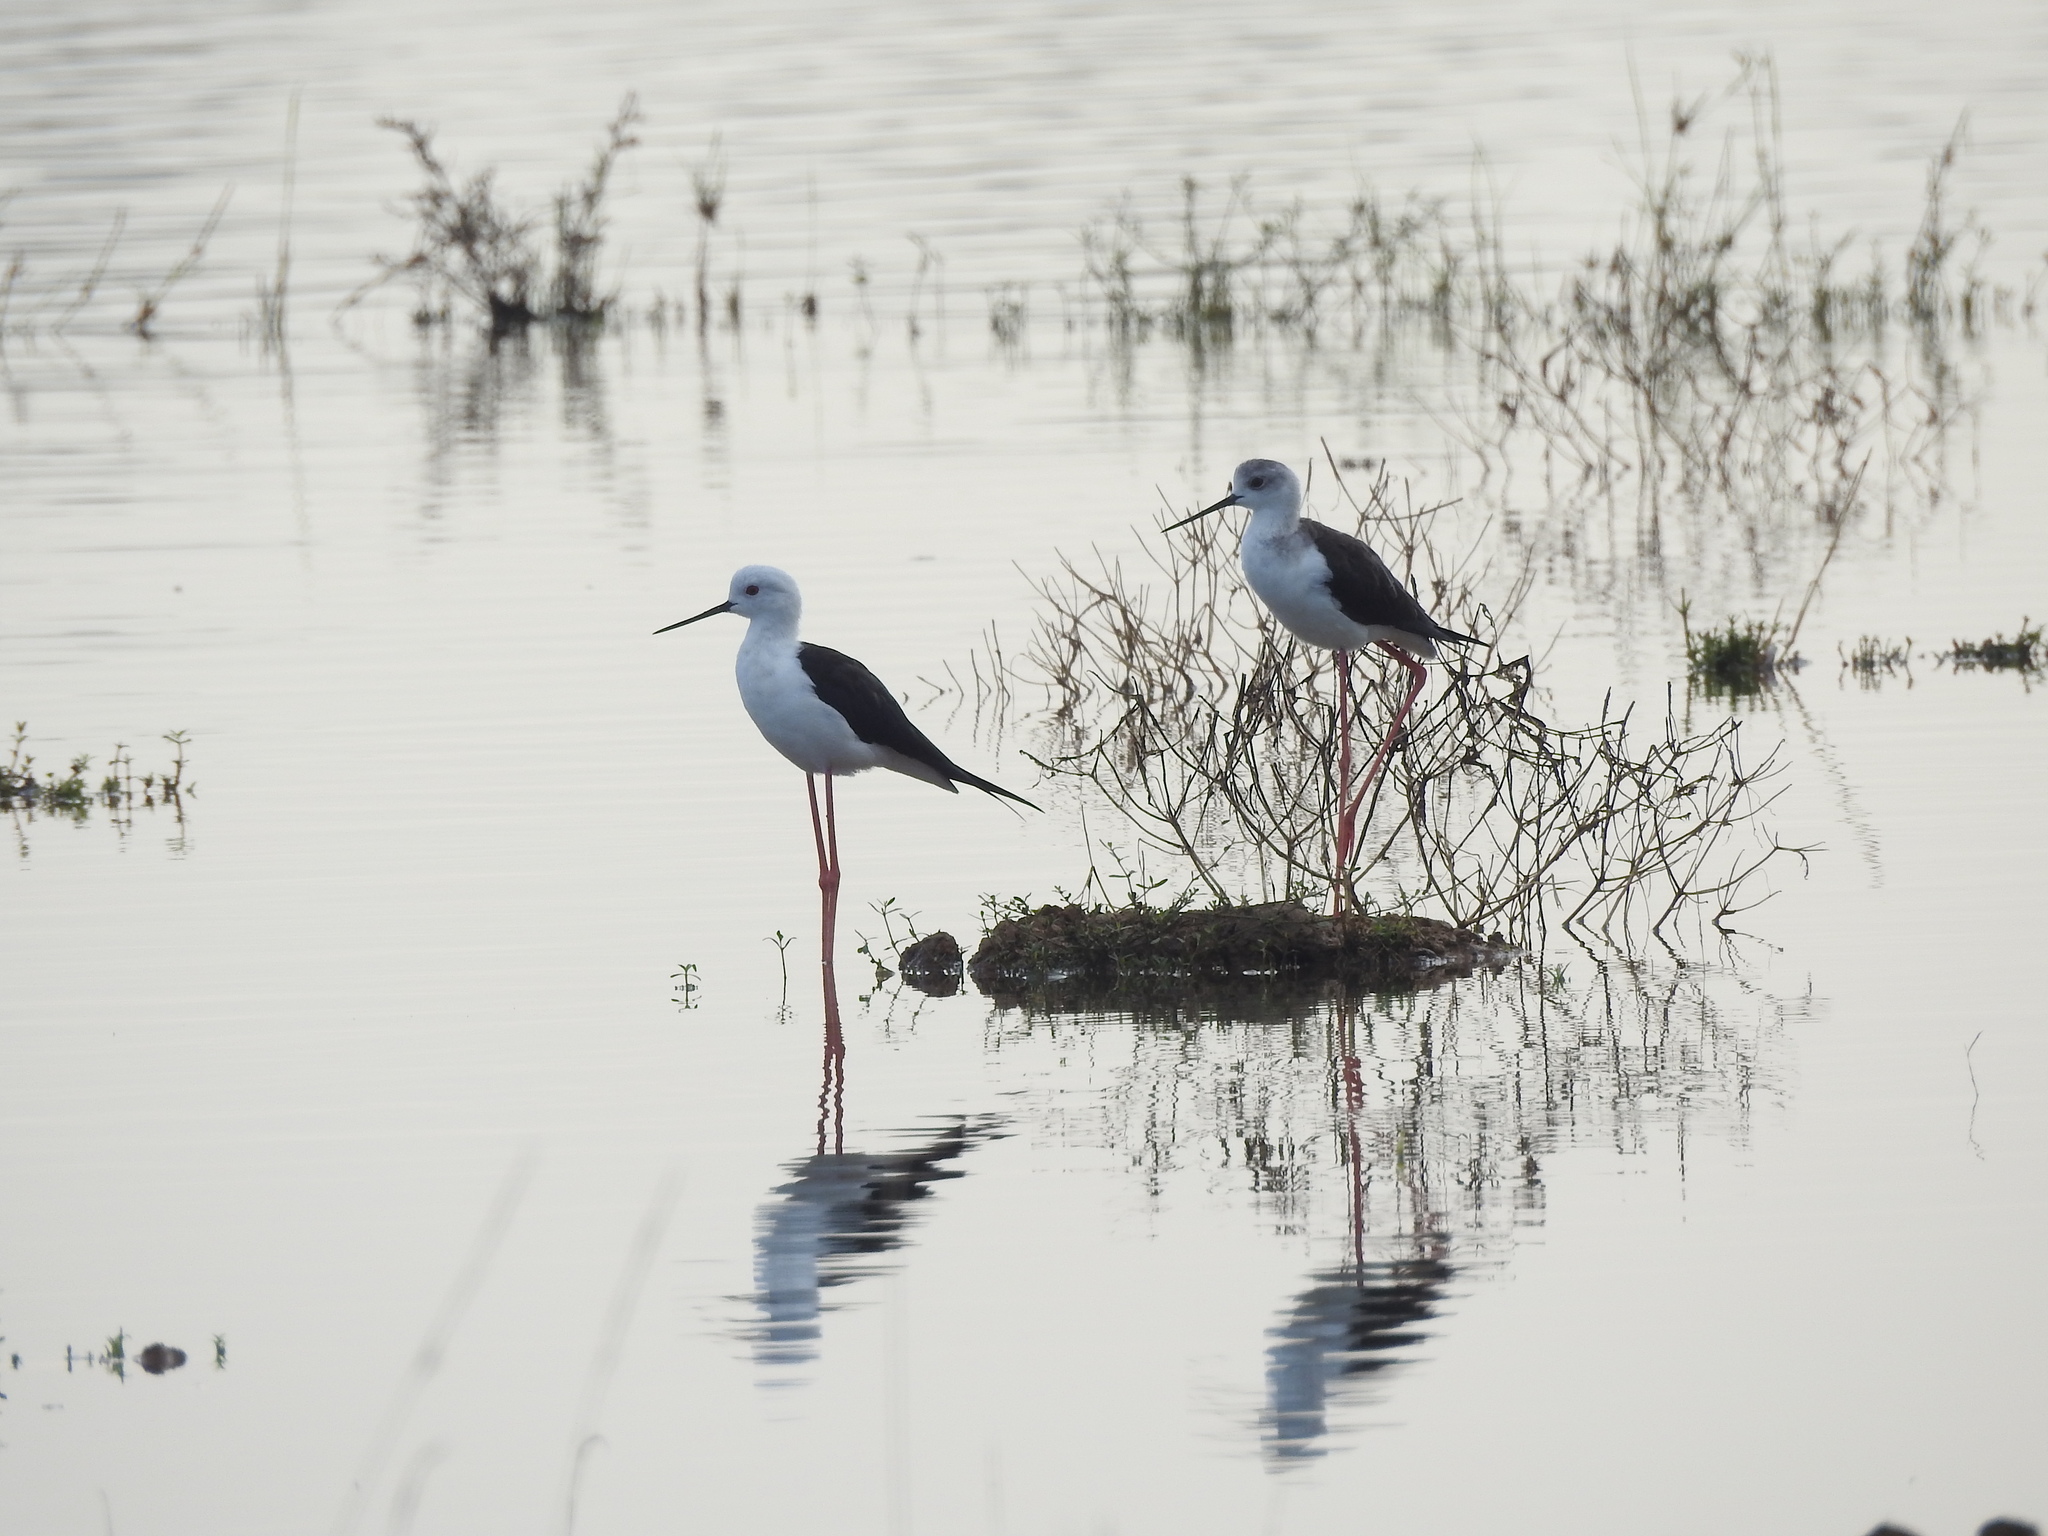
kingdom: Animalia
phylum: Chordata
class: Aves
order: Charadriiformes
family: Recurvirostridae
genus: Himantopus
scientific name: Himantopus himantopus
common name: Black-winged stilt
